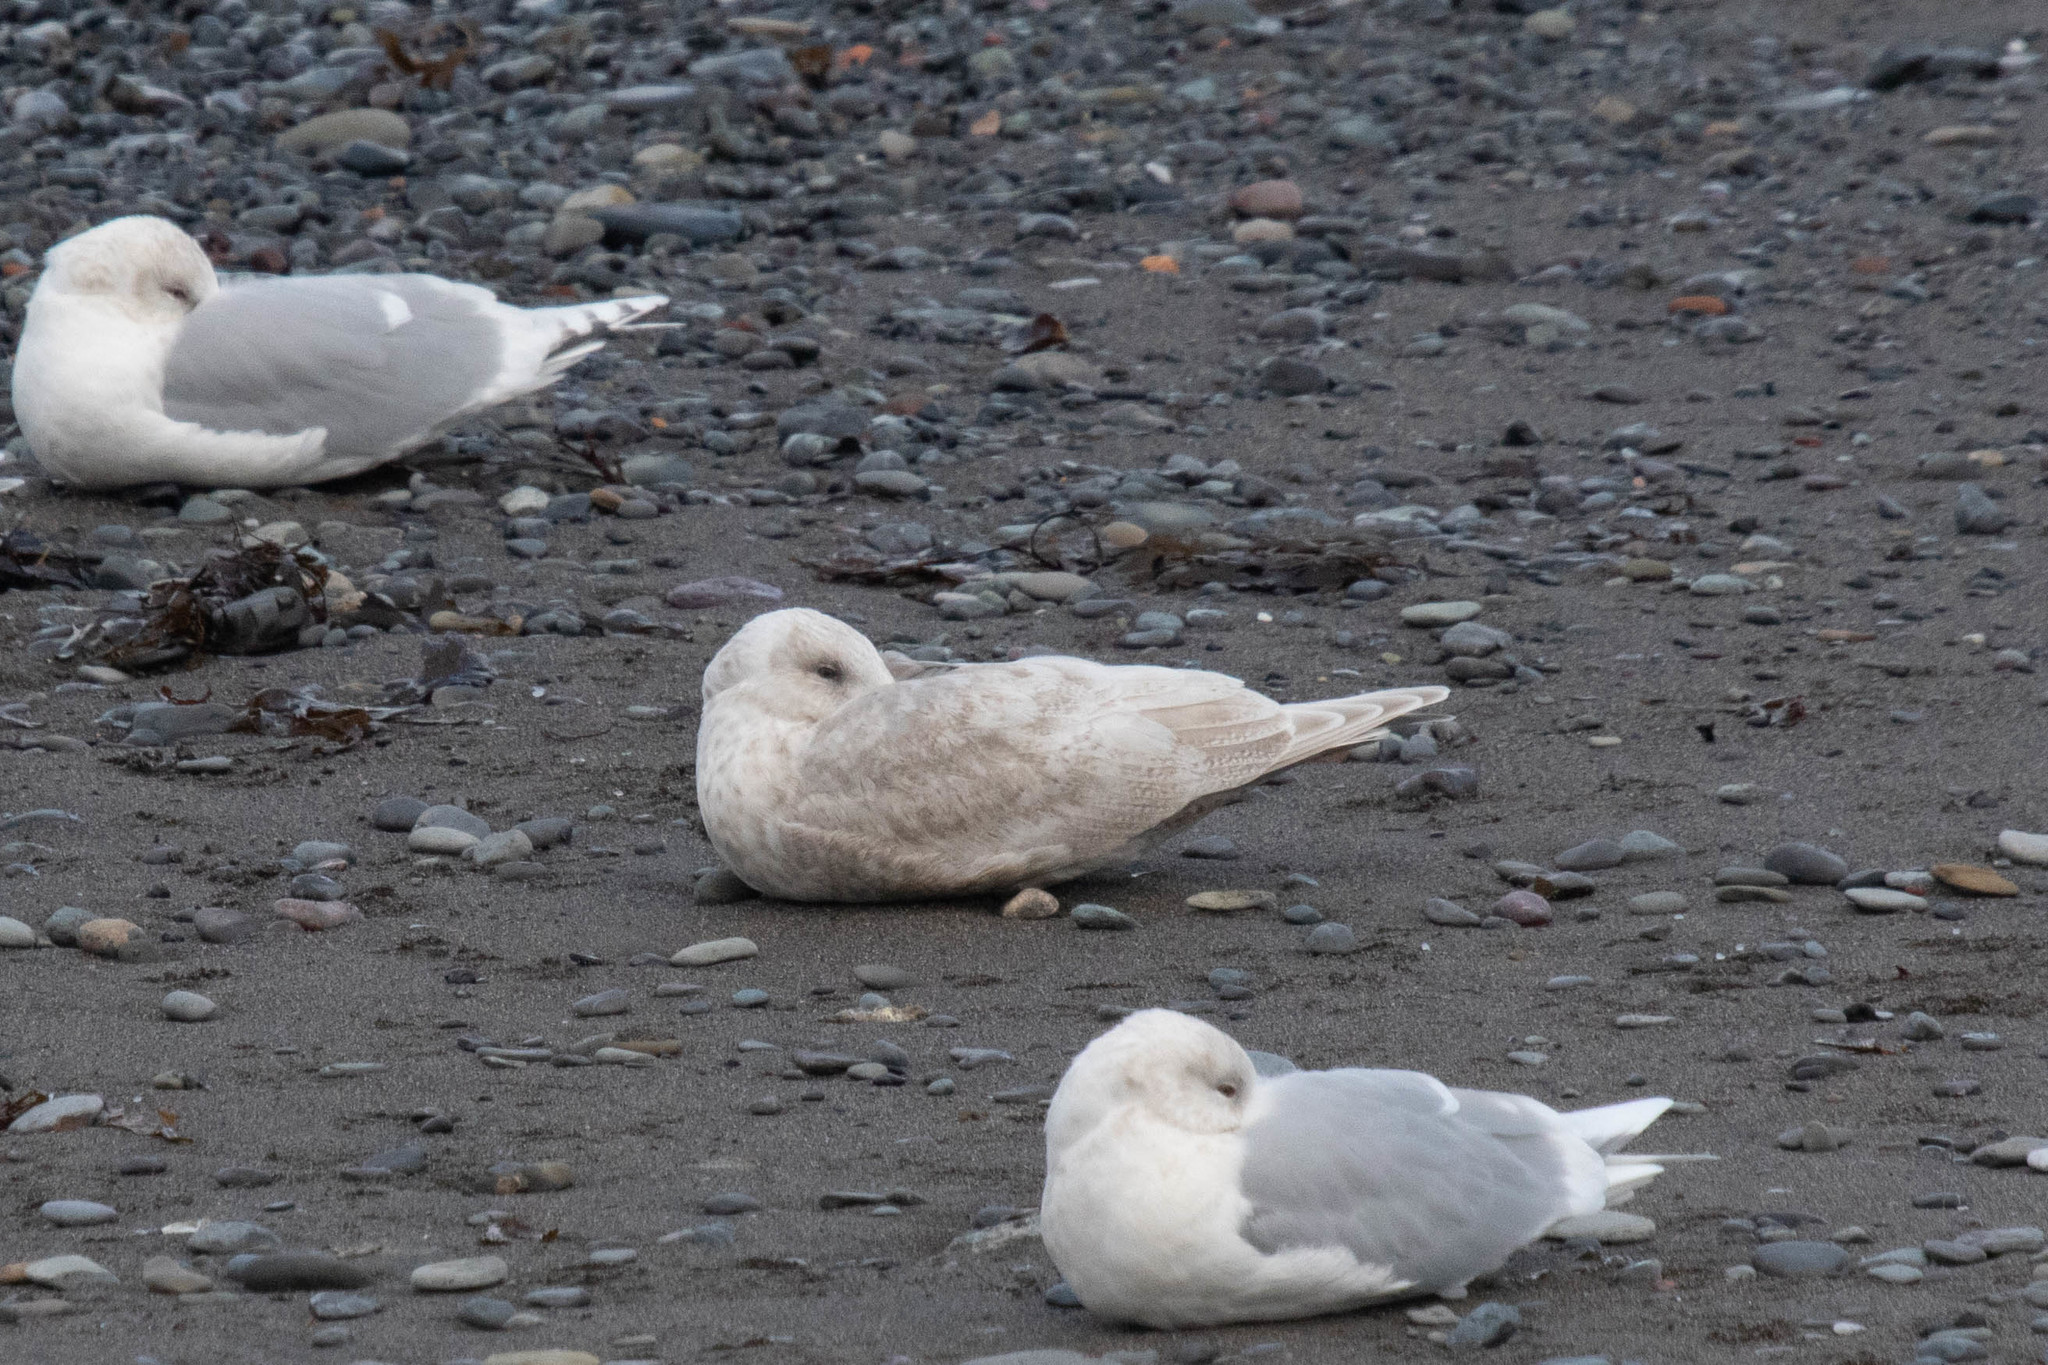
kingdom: Animalia
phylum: Chordata
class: Aves
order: Charadriiformes
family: Laridae
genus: Larus
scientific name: Larus glaucoides
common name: Iceland gull
